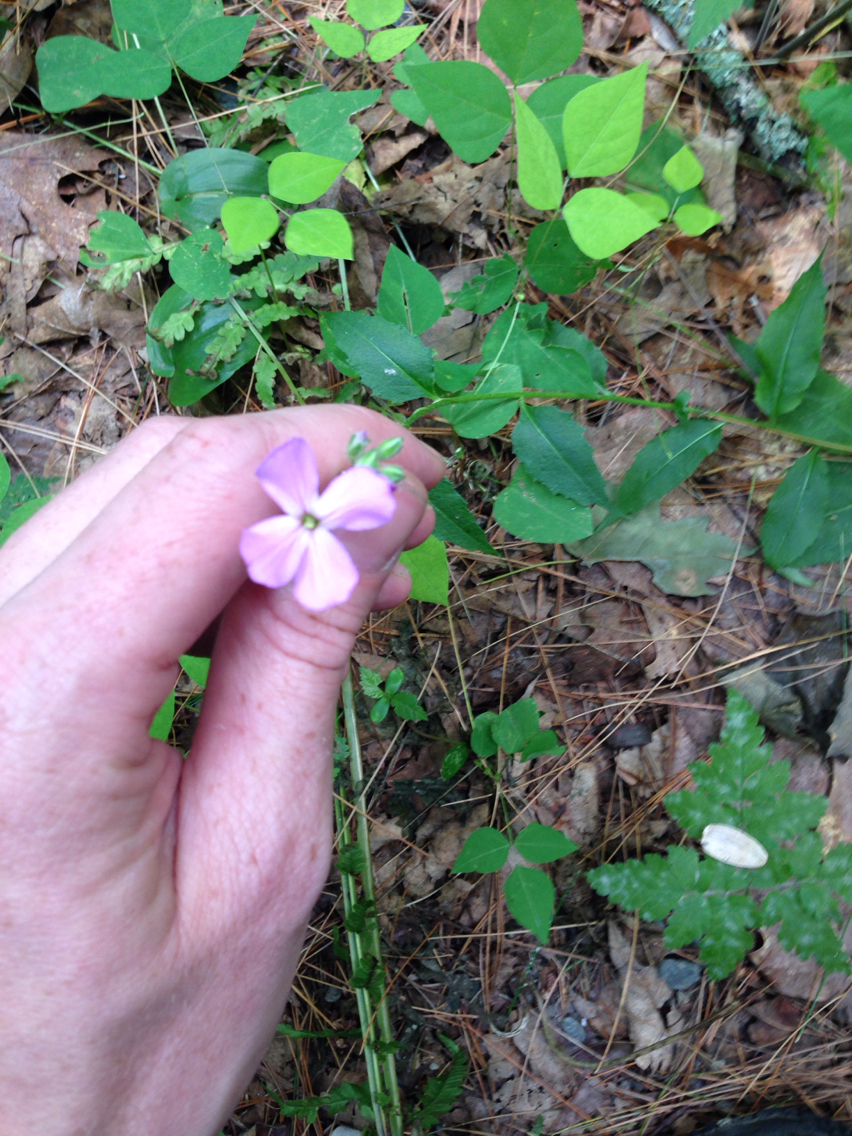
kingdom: Plantae
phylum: Tracheophyta
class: Magnoliopsida
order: Brassicales
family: Brassicaceae
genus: Hesperis
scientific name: Hesperis matronalis
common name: Dame's-violet
